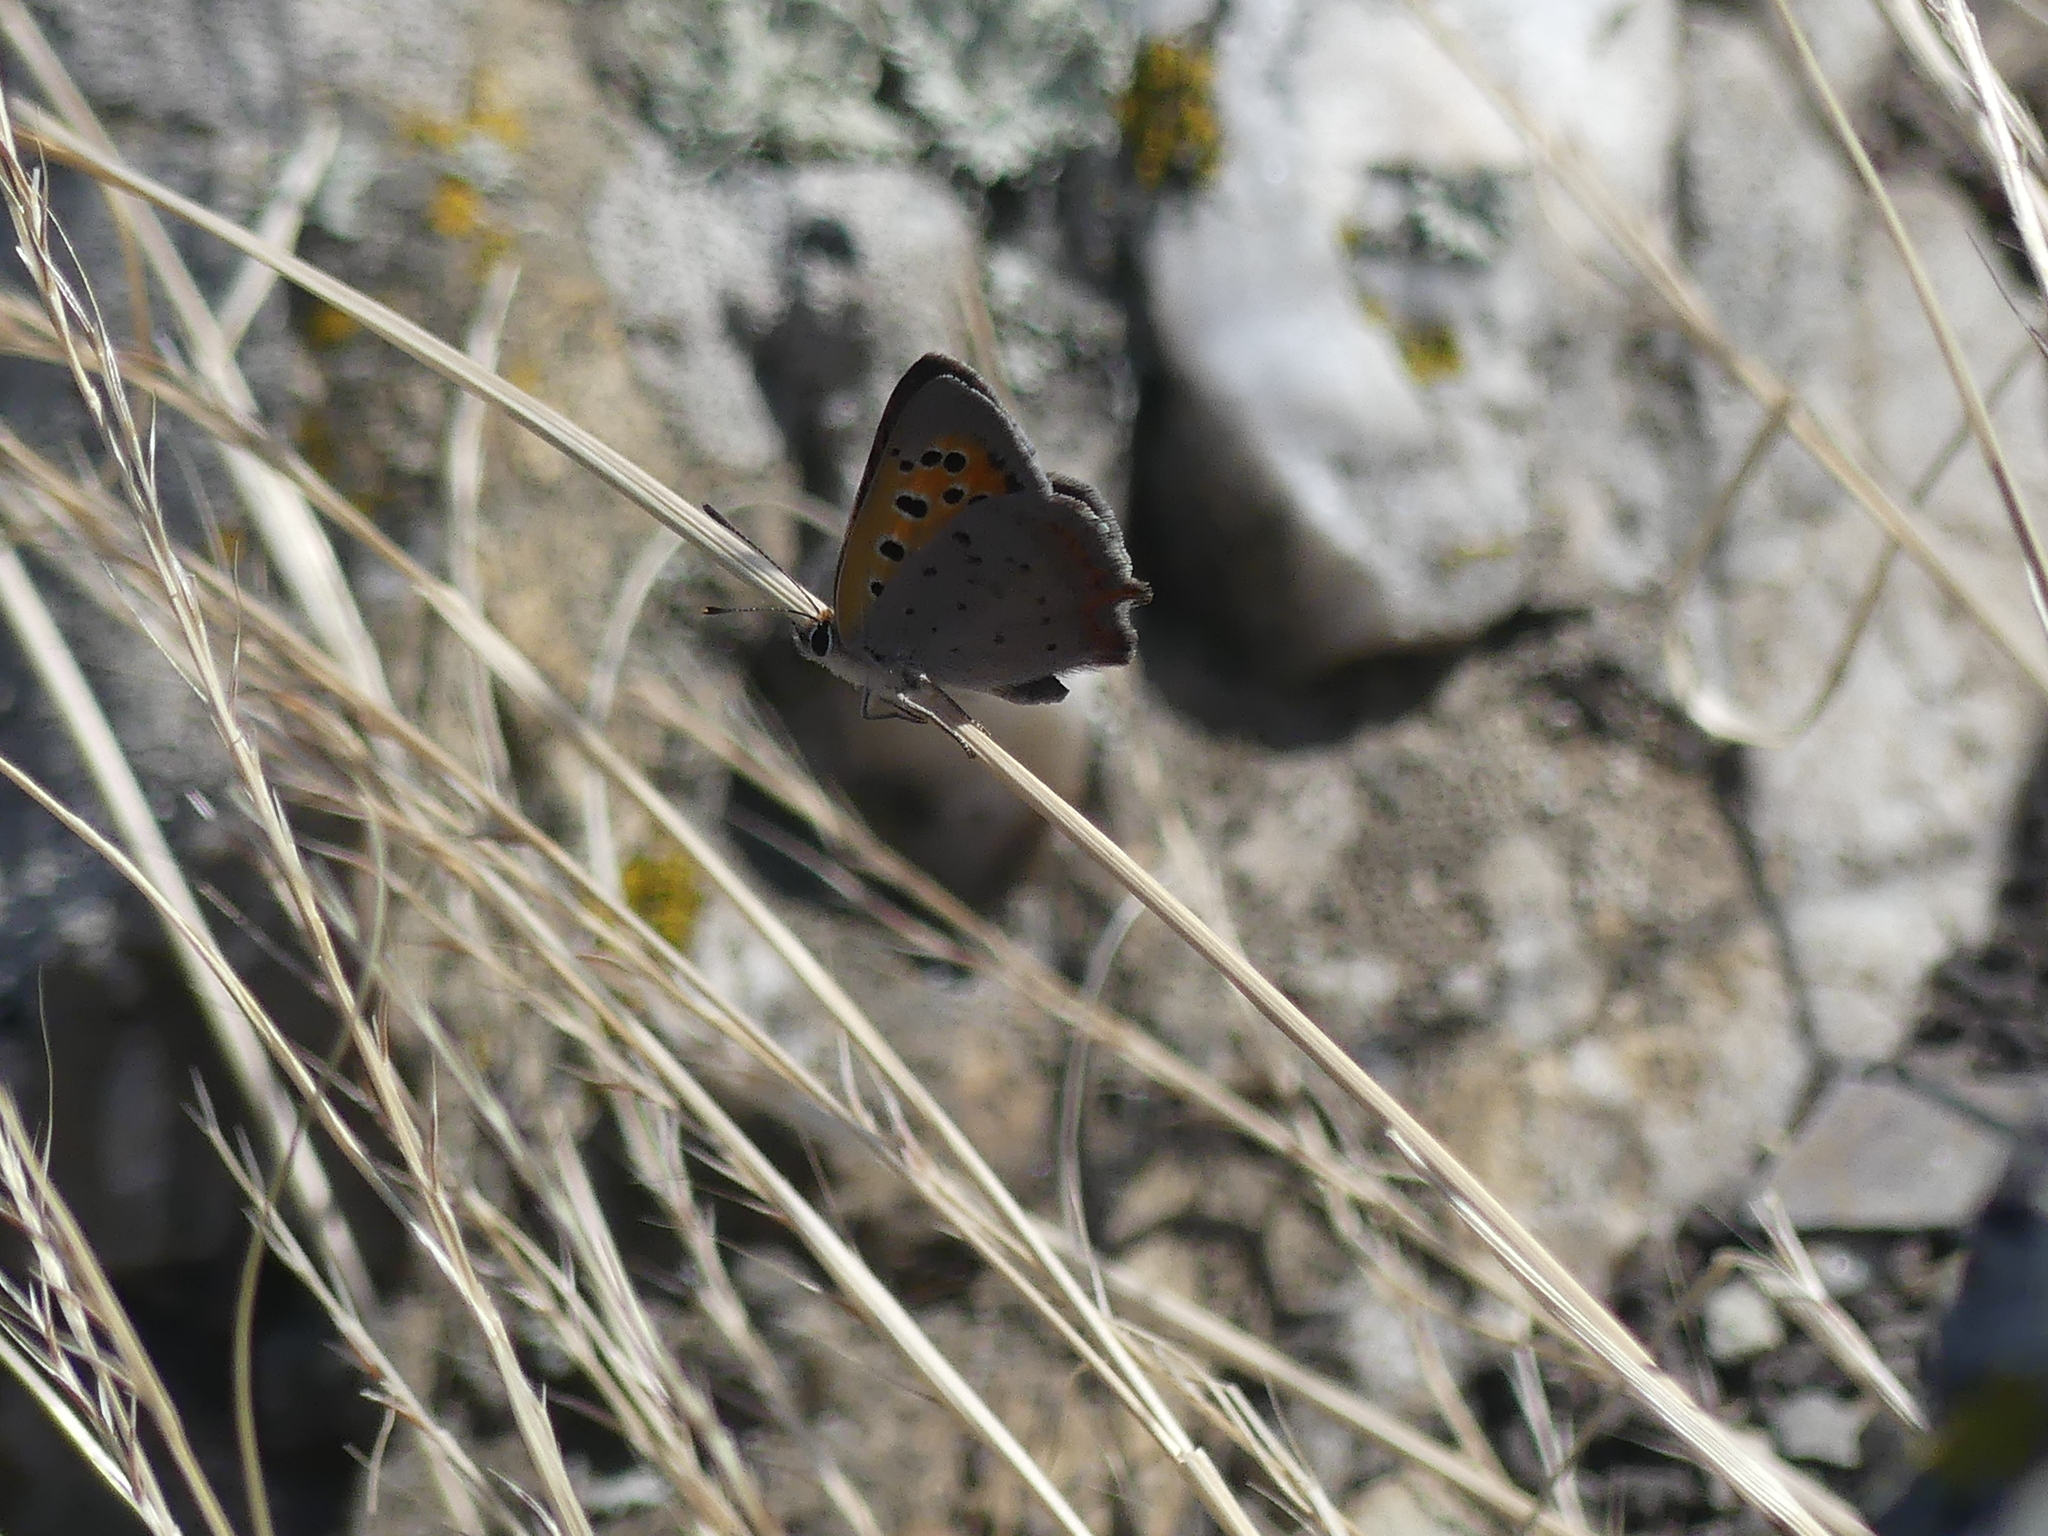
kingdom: Animalia
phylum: Arthropoda
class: Insecta
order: Lepidoptera
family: Lycaenidae
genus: Lycaena
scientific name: Lycaena phlaeas
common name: Small copper
